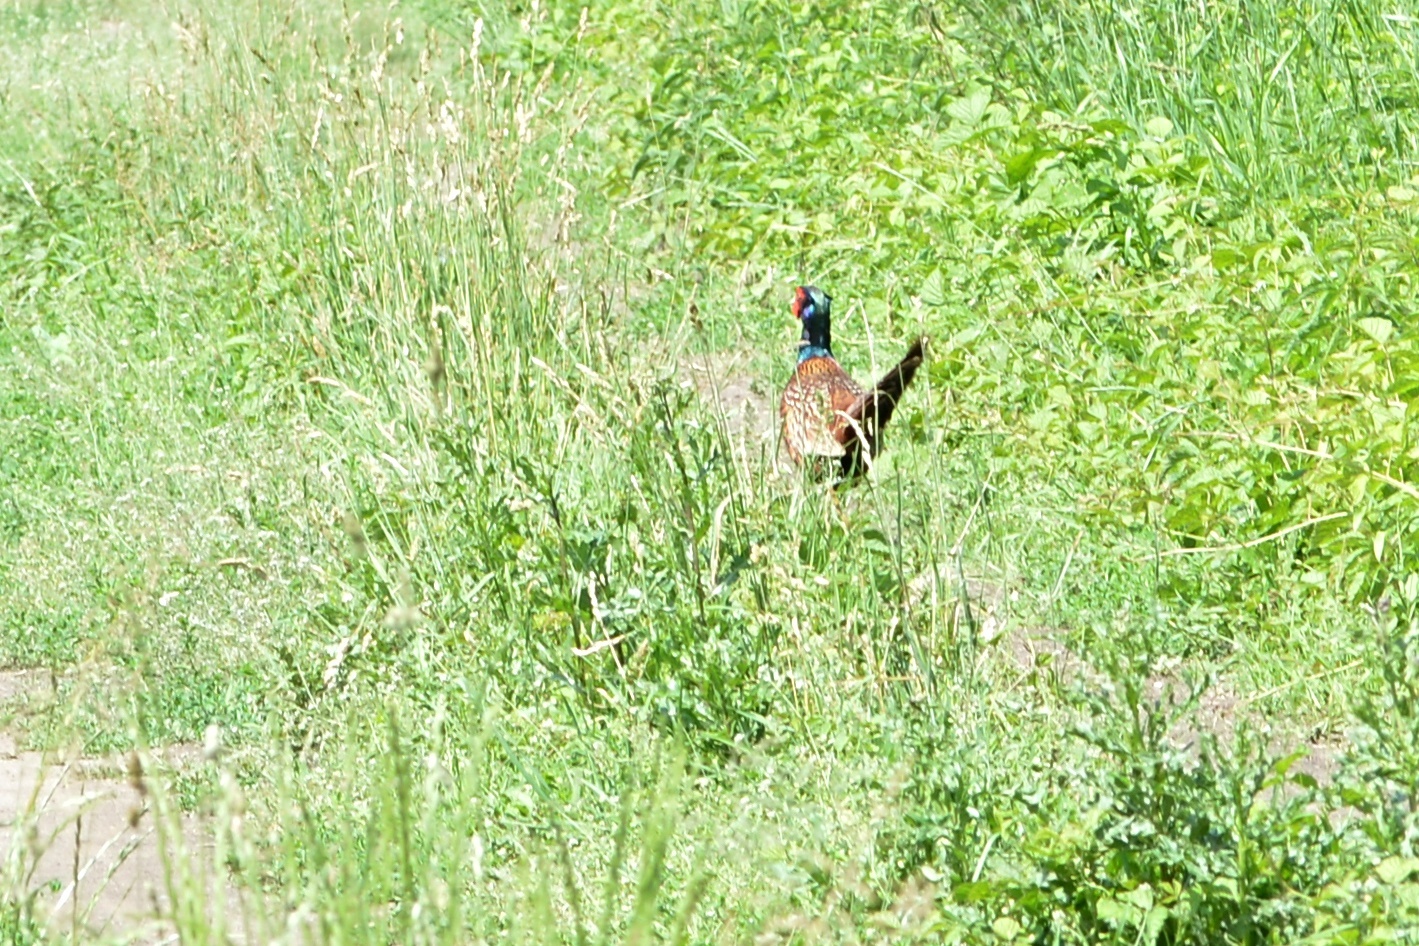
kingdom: Animalia
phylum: Chordata
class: Aves
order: Galliformes
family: Phasianidae
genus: Phasianus
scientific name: Phasianus colchicus
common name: Common pheasant
